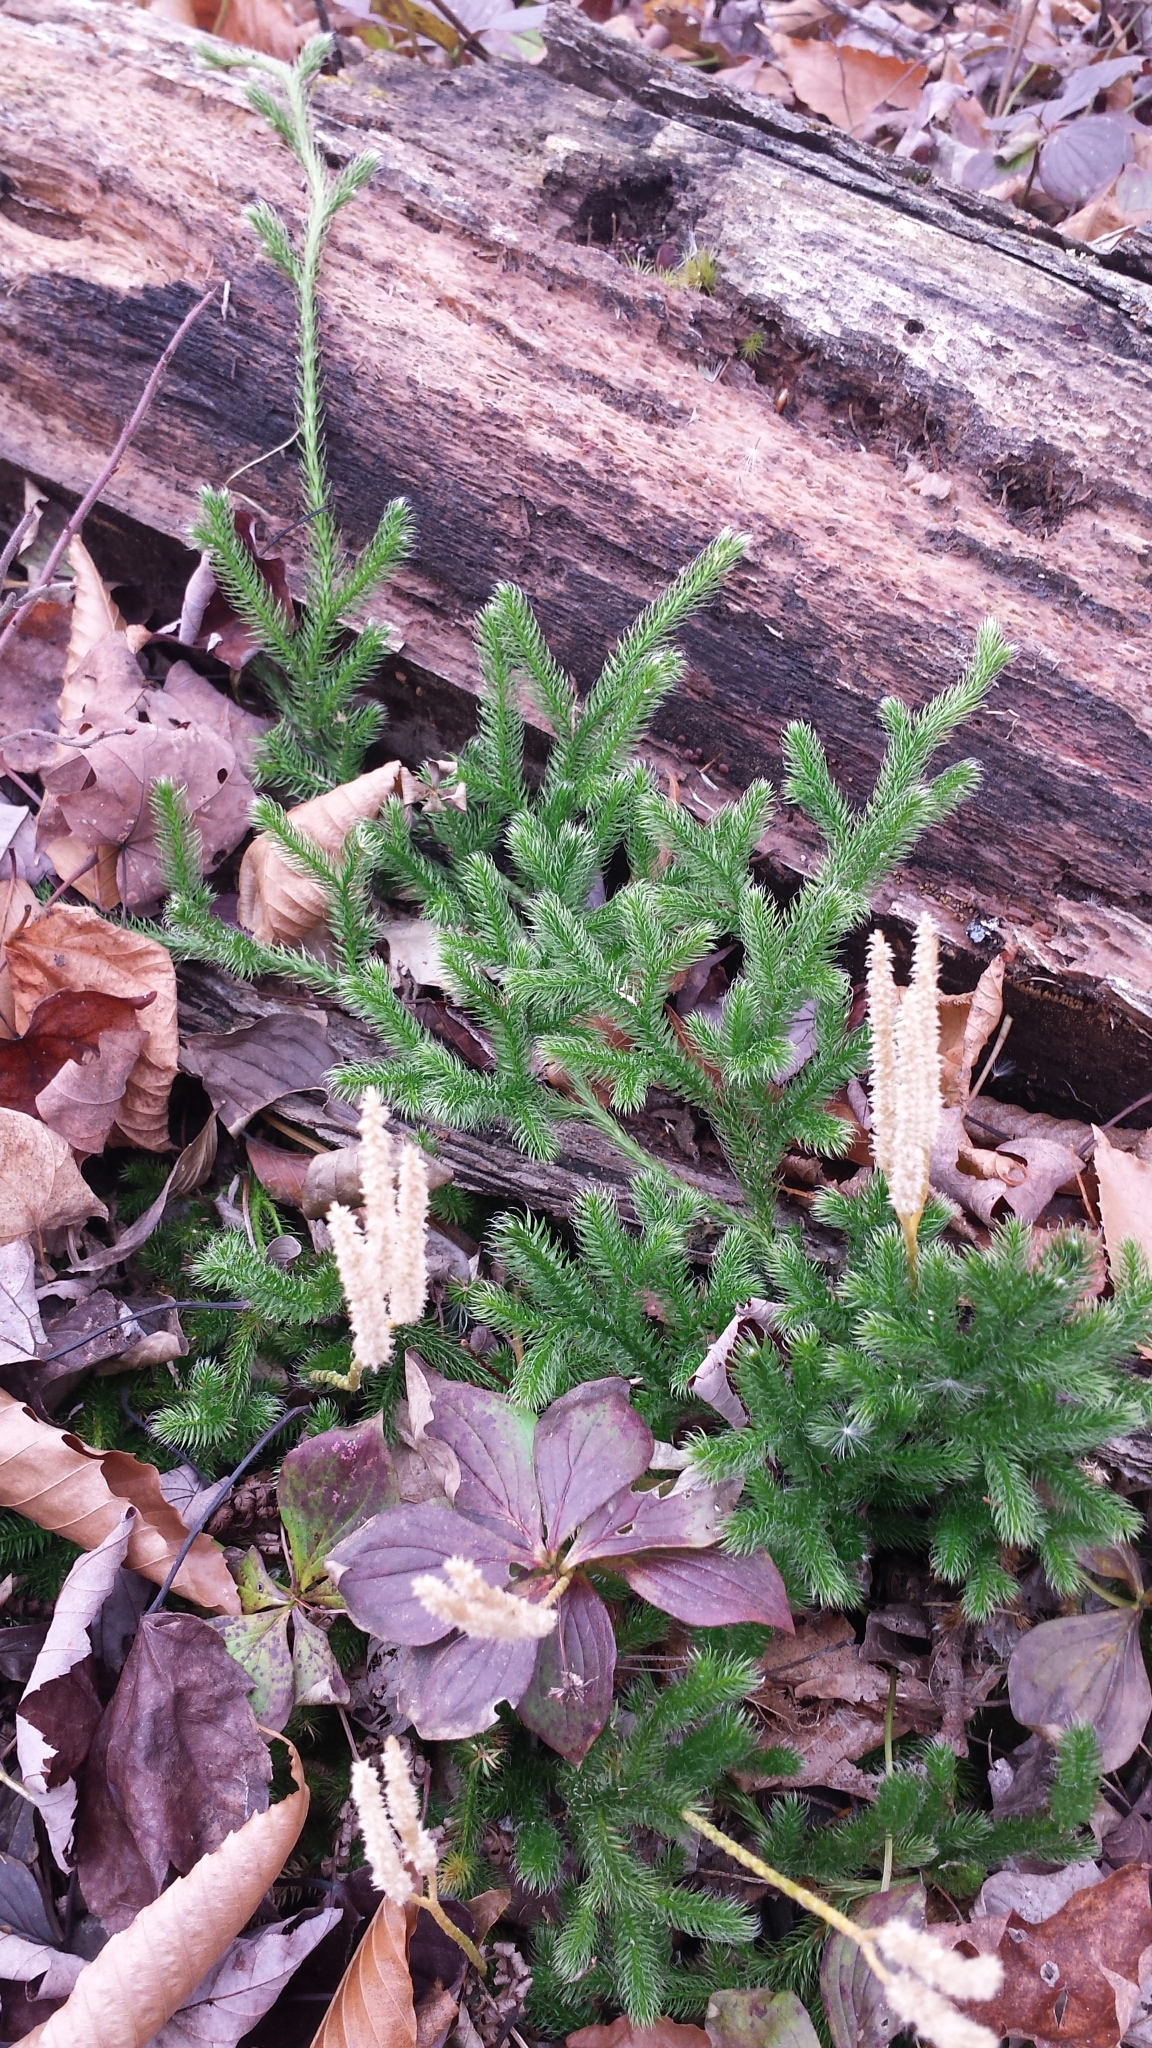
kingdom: Plantae
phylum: Tracheophyta
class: Lycopodiopsida
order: Lycopodiales
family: Lycopodiaceae
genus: Lycopodium
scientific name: Lycopodium clavatum
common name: Stag's-horn clubmoss
